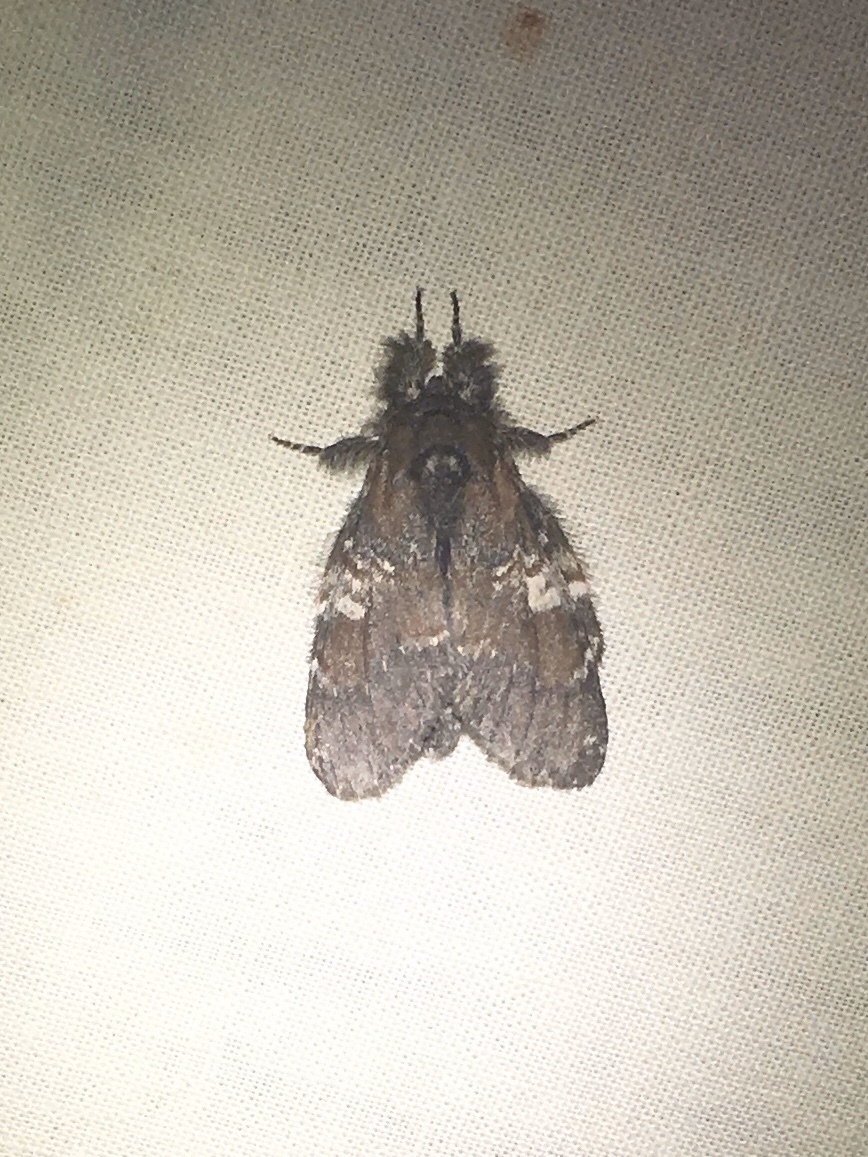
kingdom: Animalia
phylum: Arthropoda
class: Insecta
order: Lepidoptera
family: Notodontidae
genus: Peridea
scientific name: Peridea ferruginea
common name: Chocolate prominent
